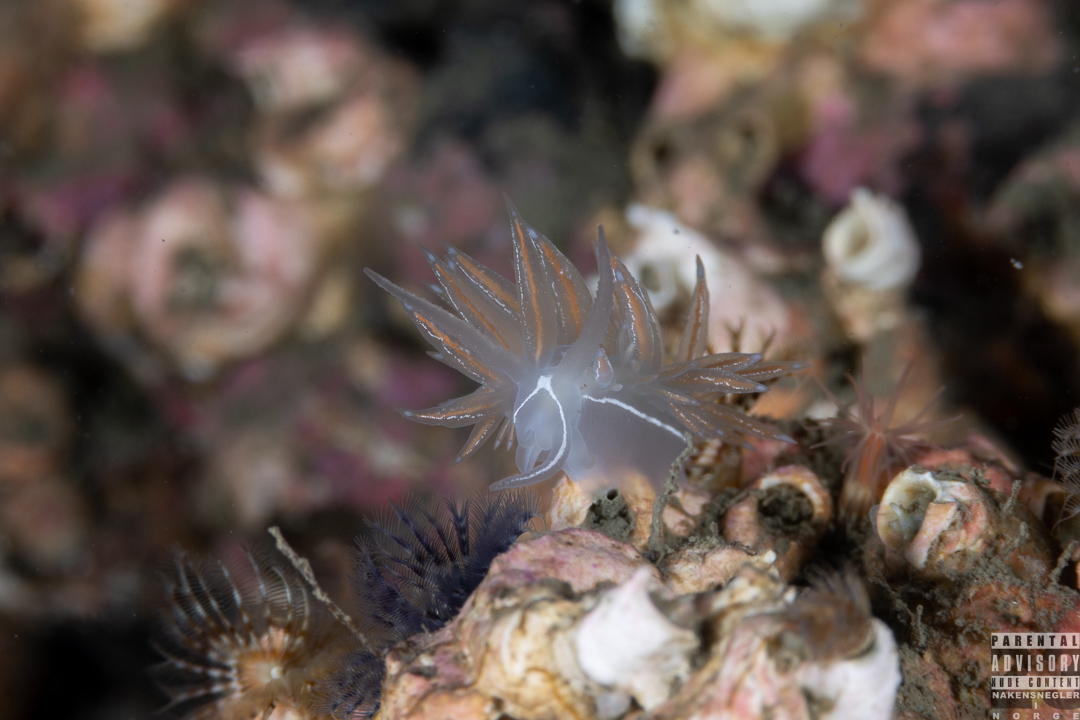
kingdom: Animalia
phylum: Mollusca
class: Gastropoda
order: Nudibranchia
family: Coryphellidae
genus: Coryphella
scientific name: Coryphella chriskaugei
